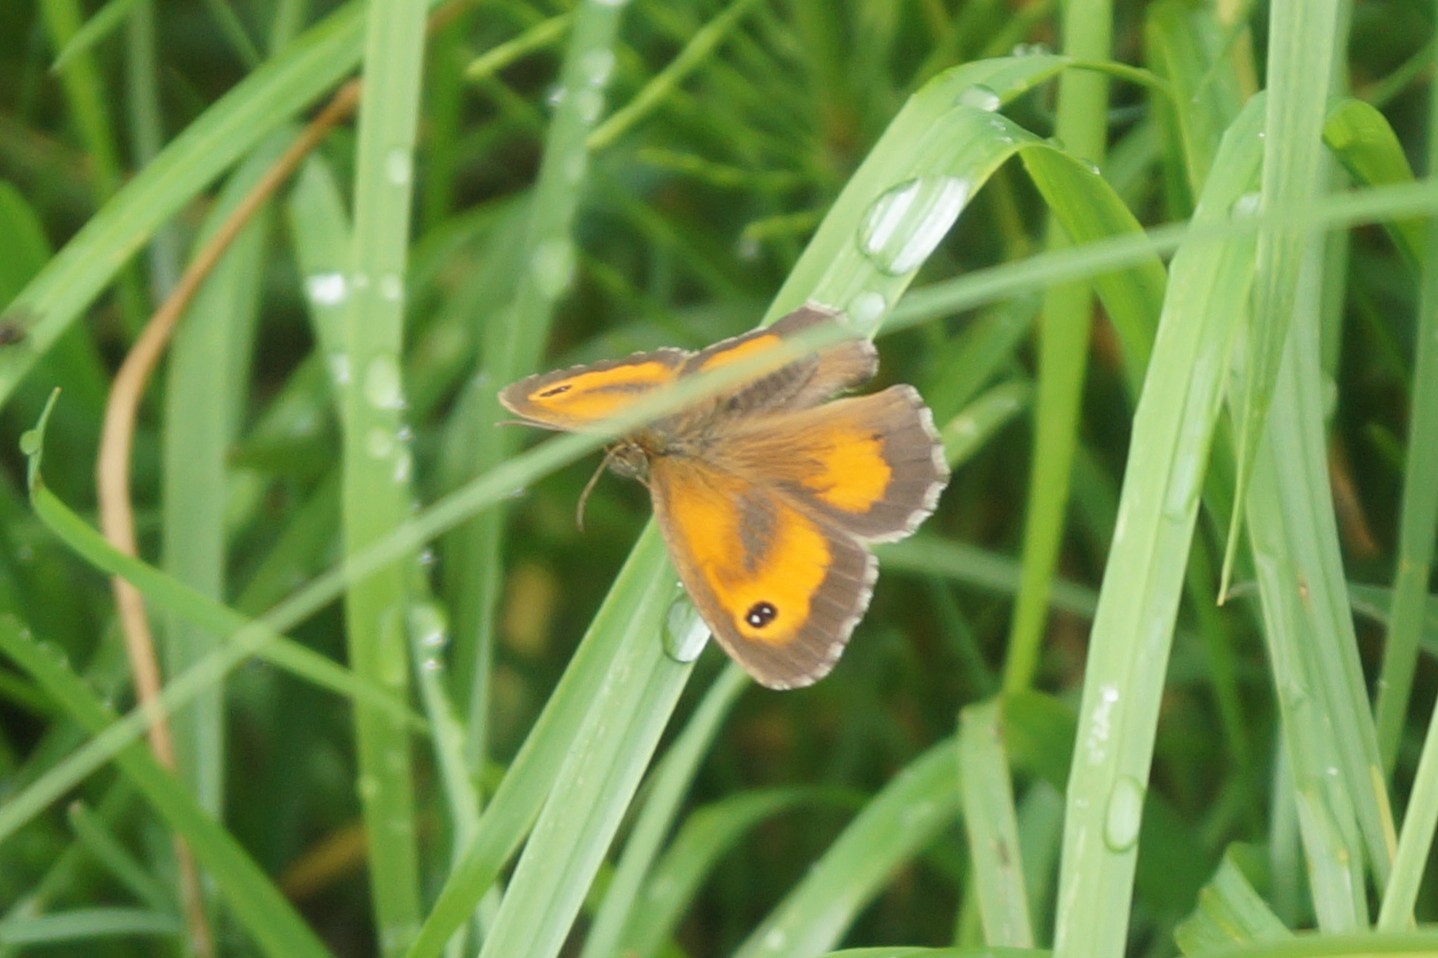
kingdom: Animalia
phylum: Arthropoda
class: Insecta
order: Lepidoptera
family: Nymphalidae
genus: Pyronia
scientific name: Pyronia tithonus
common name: Gatekeeper
